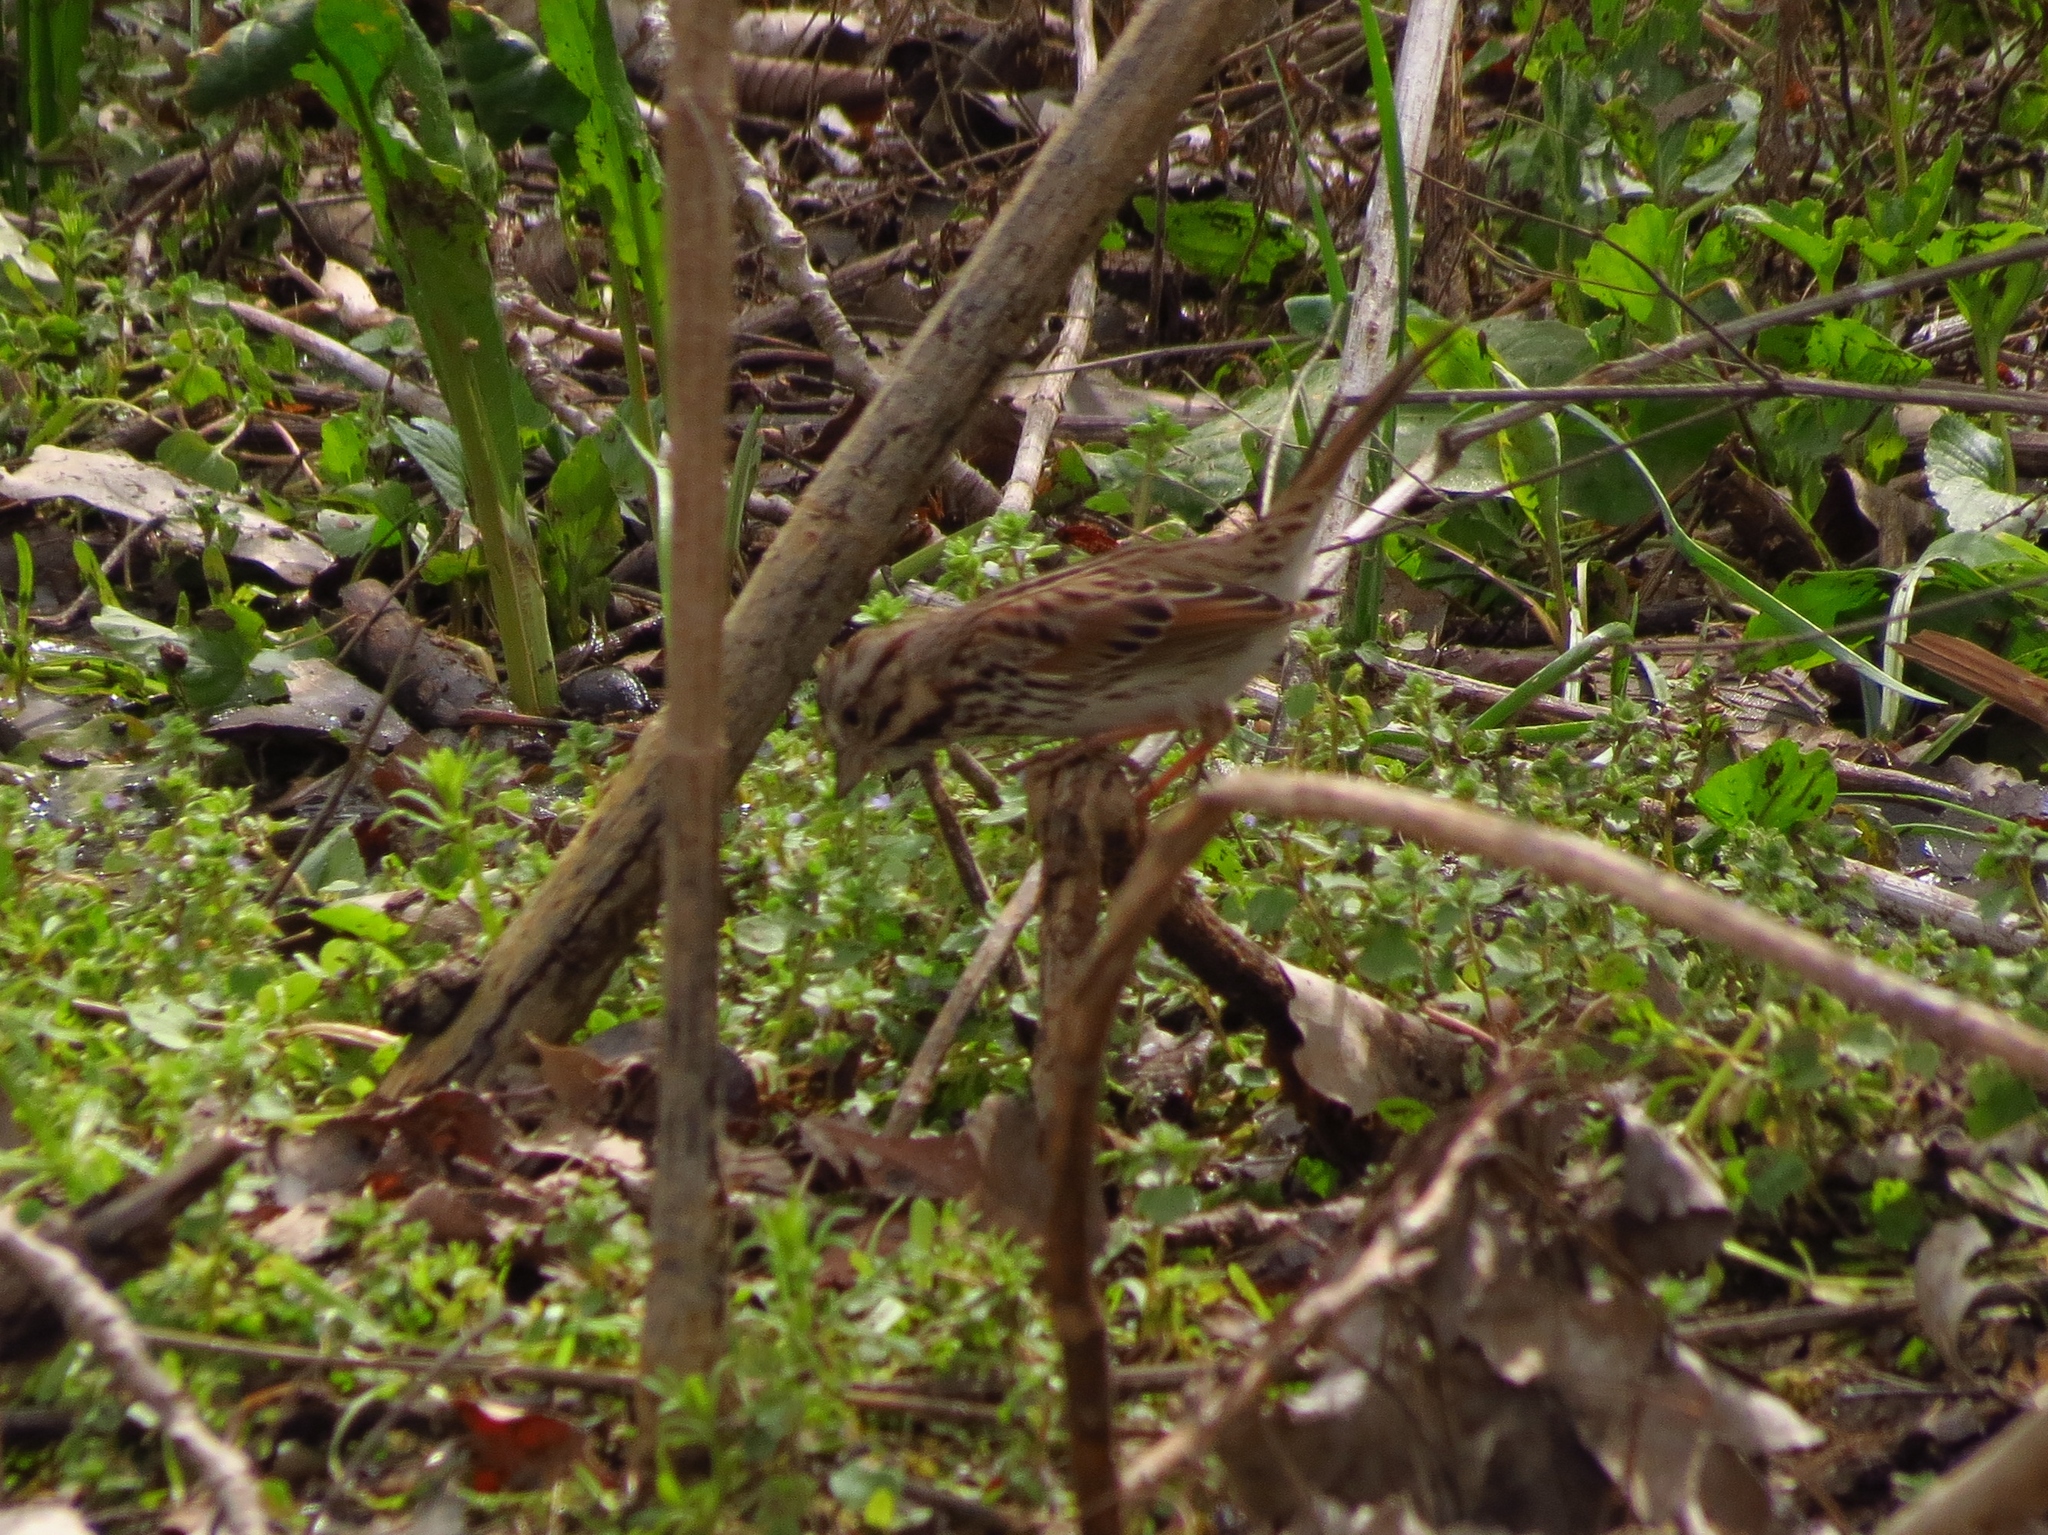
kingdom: Animalia
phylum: Chordata
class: Aves
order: Passeriformes
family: Passerellidae
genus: Melospiza
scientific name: Melospiza melodia
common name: Song sparrow
